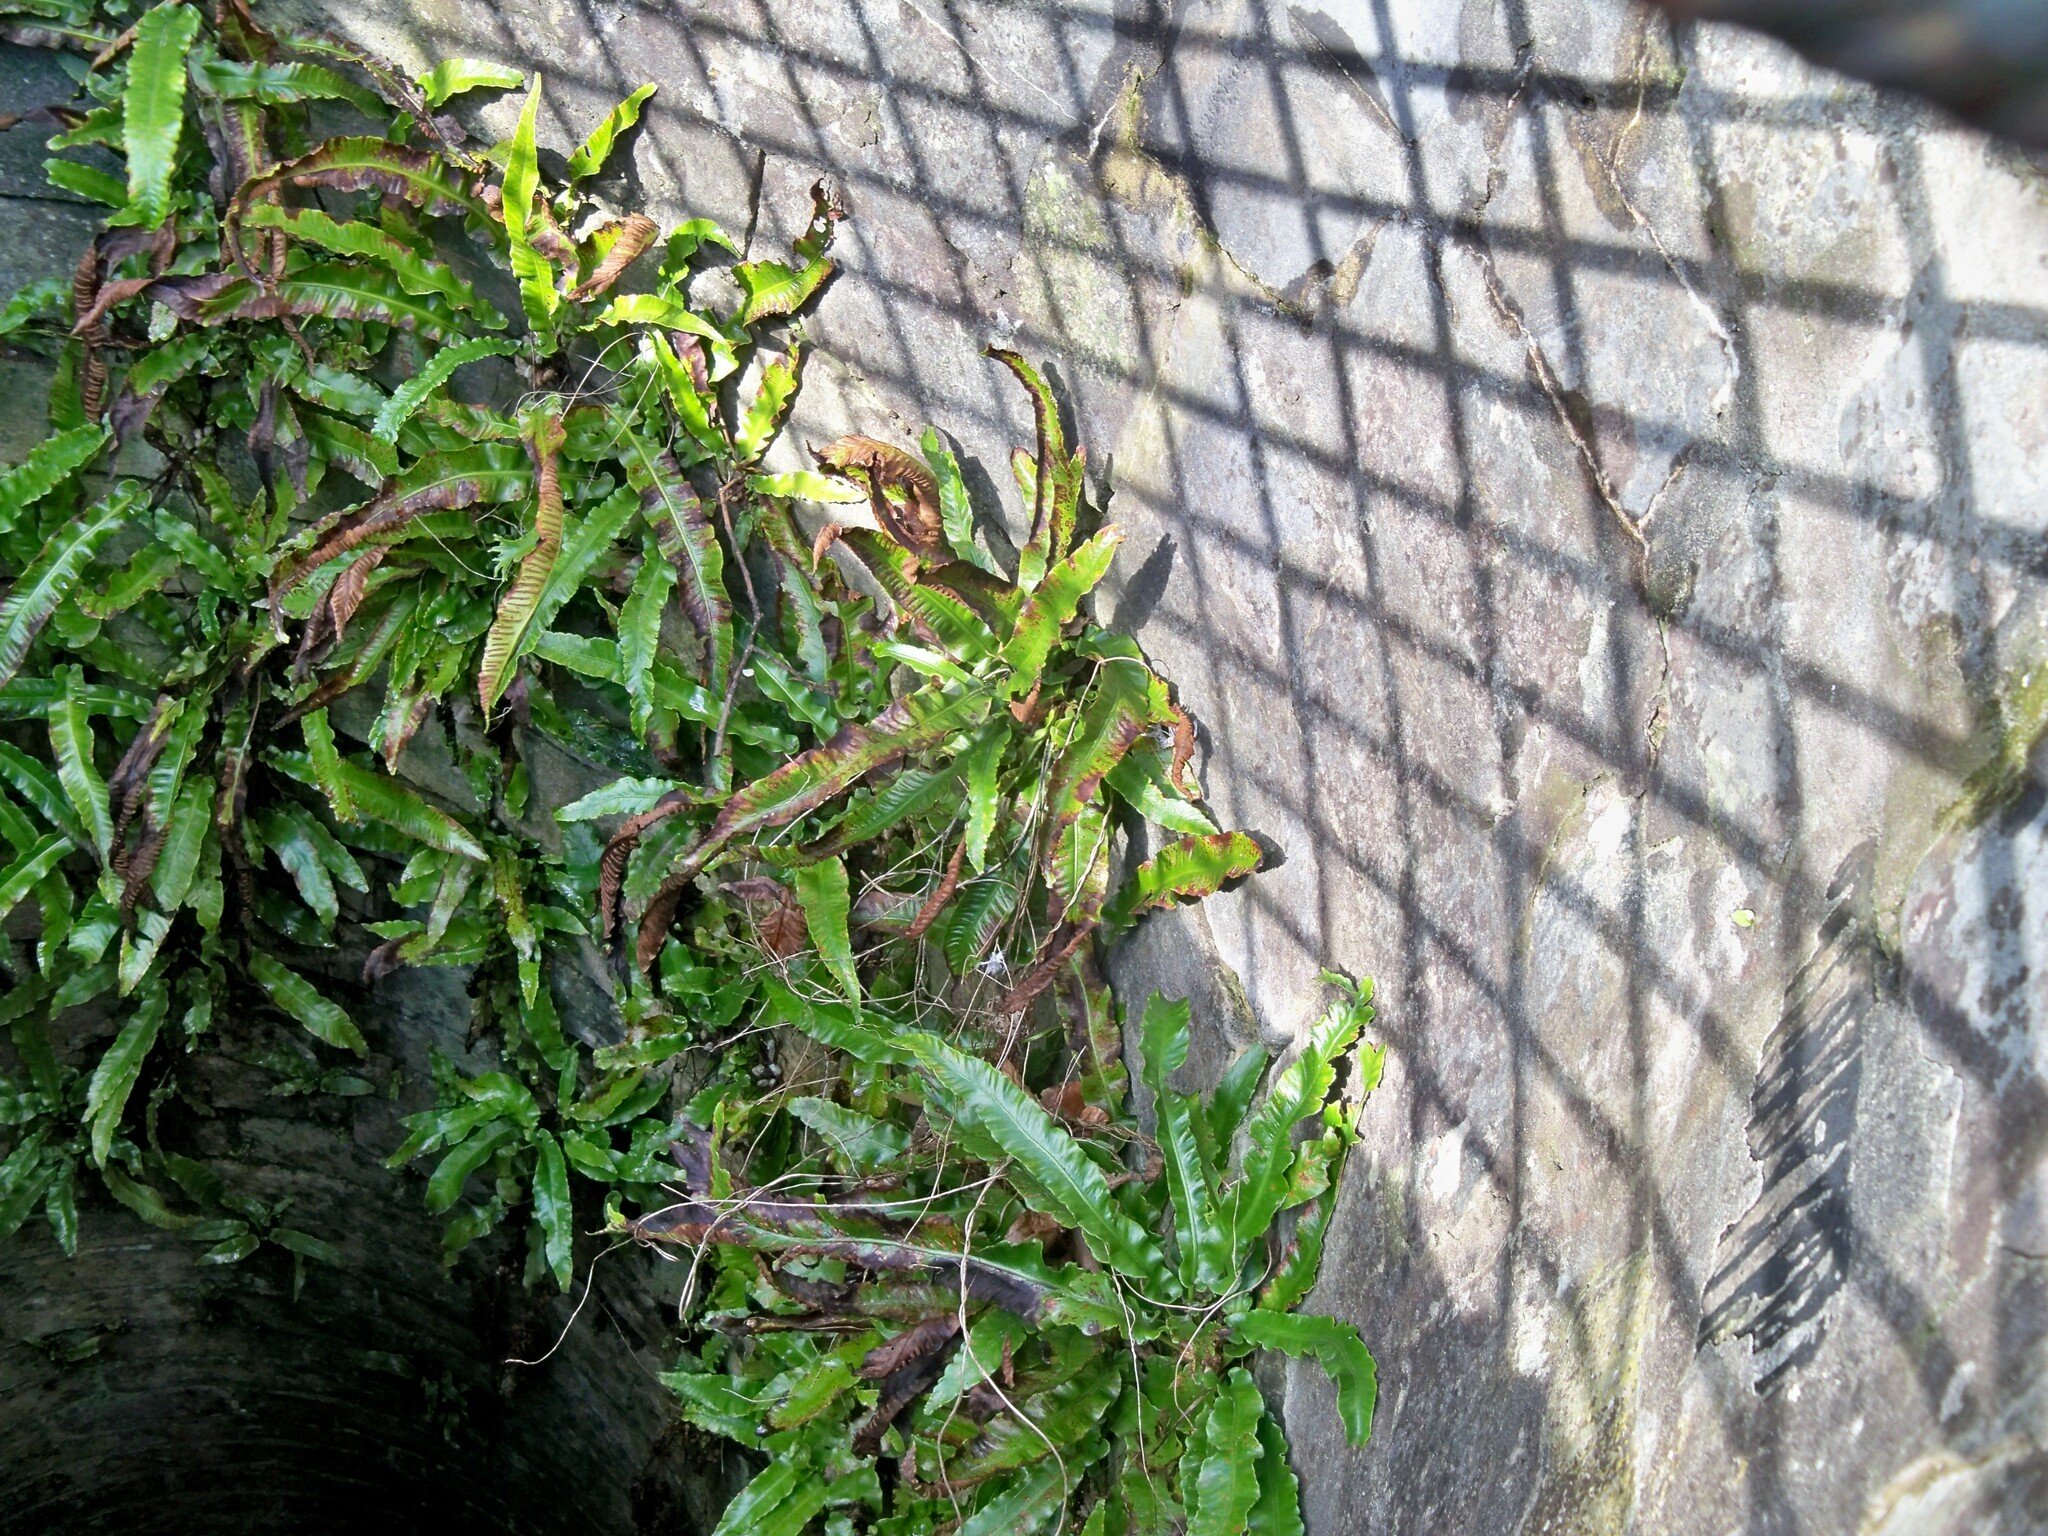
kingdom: Plantae
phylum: Tracheophyta
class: Polypodiopsida
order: Polypodiales
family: Aspleniaceae
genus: Asplenium
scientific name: Asplenium scolopendrium
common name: Hart's-tongue fern
